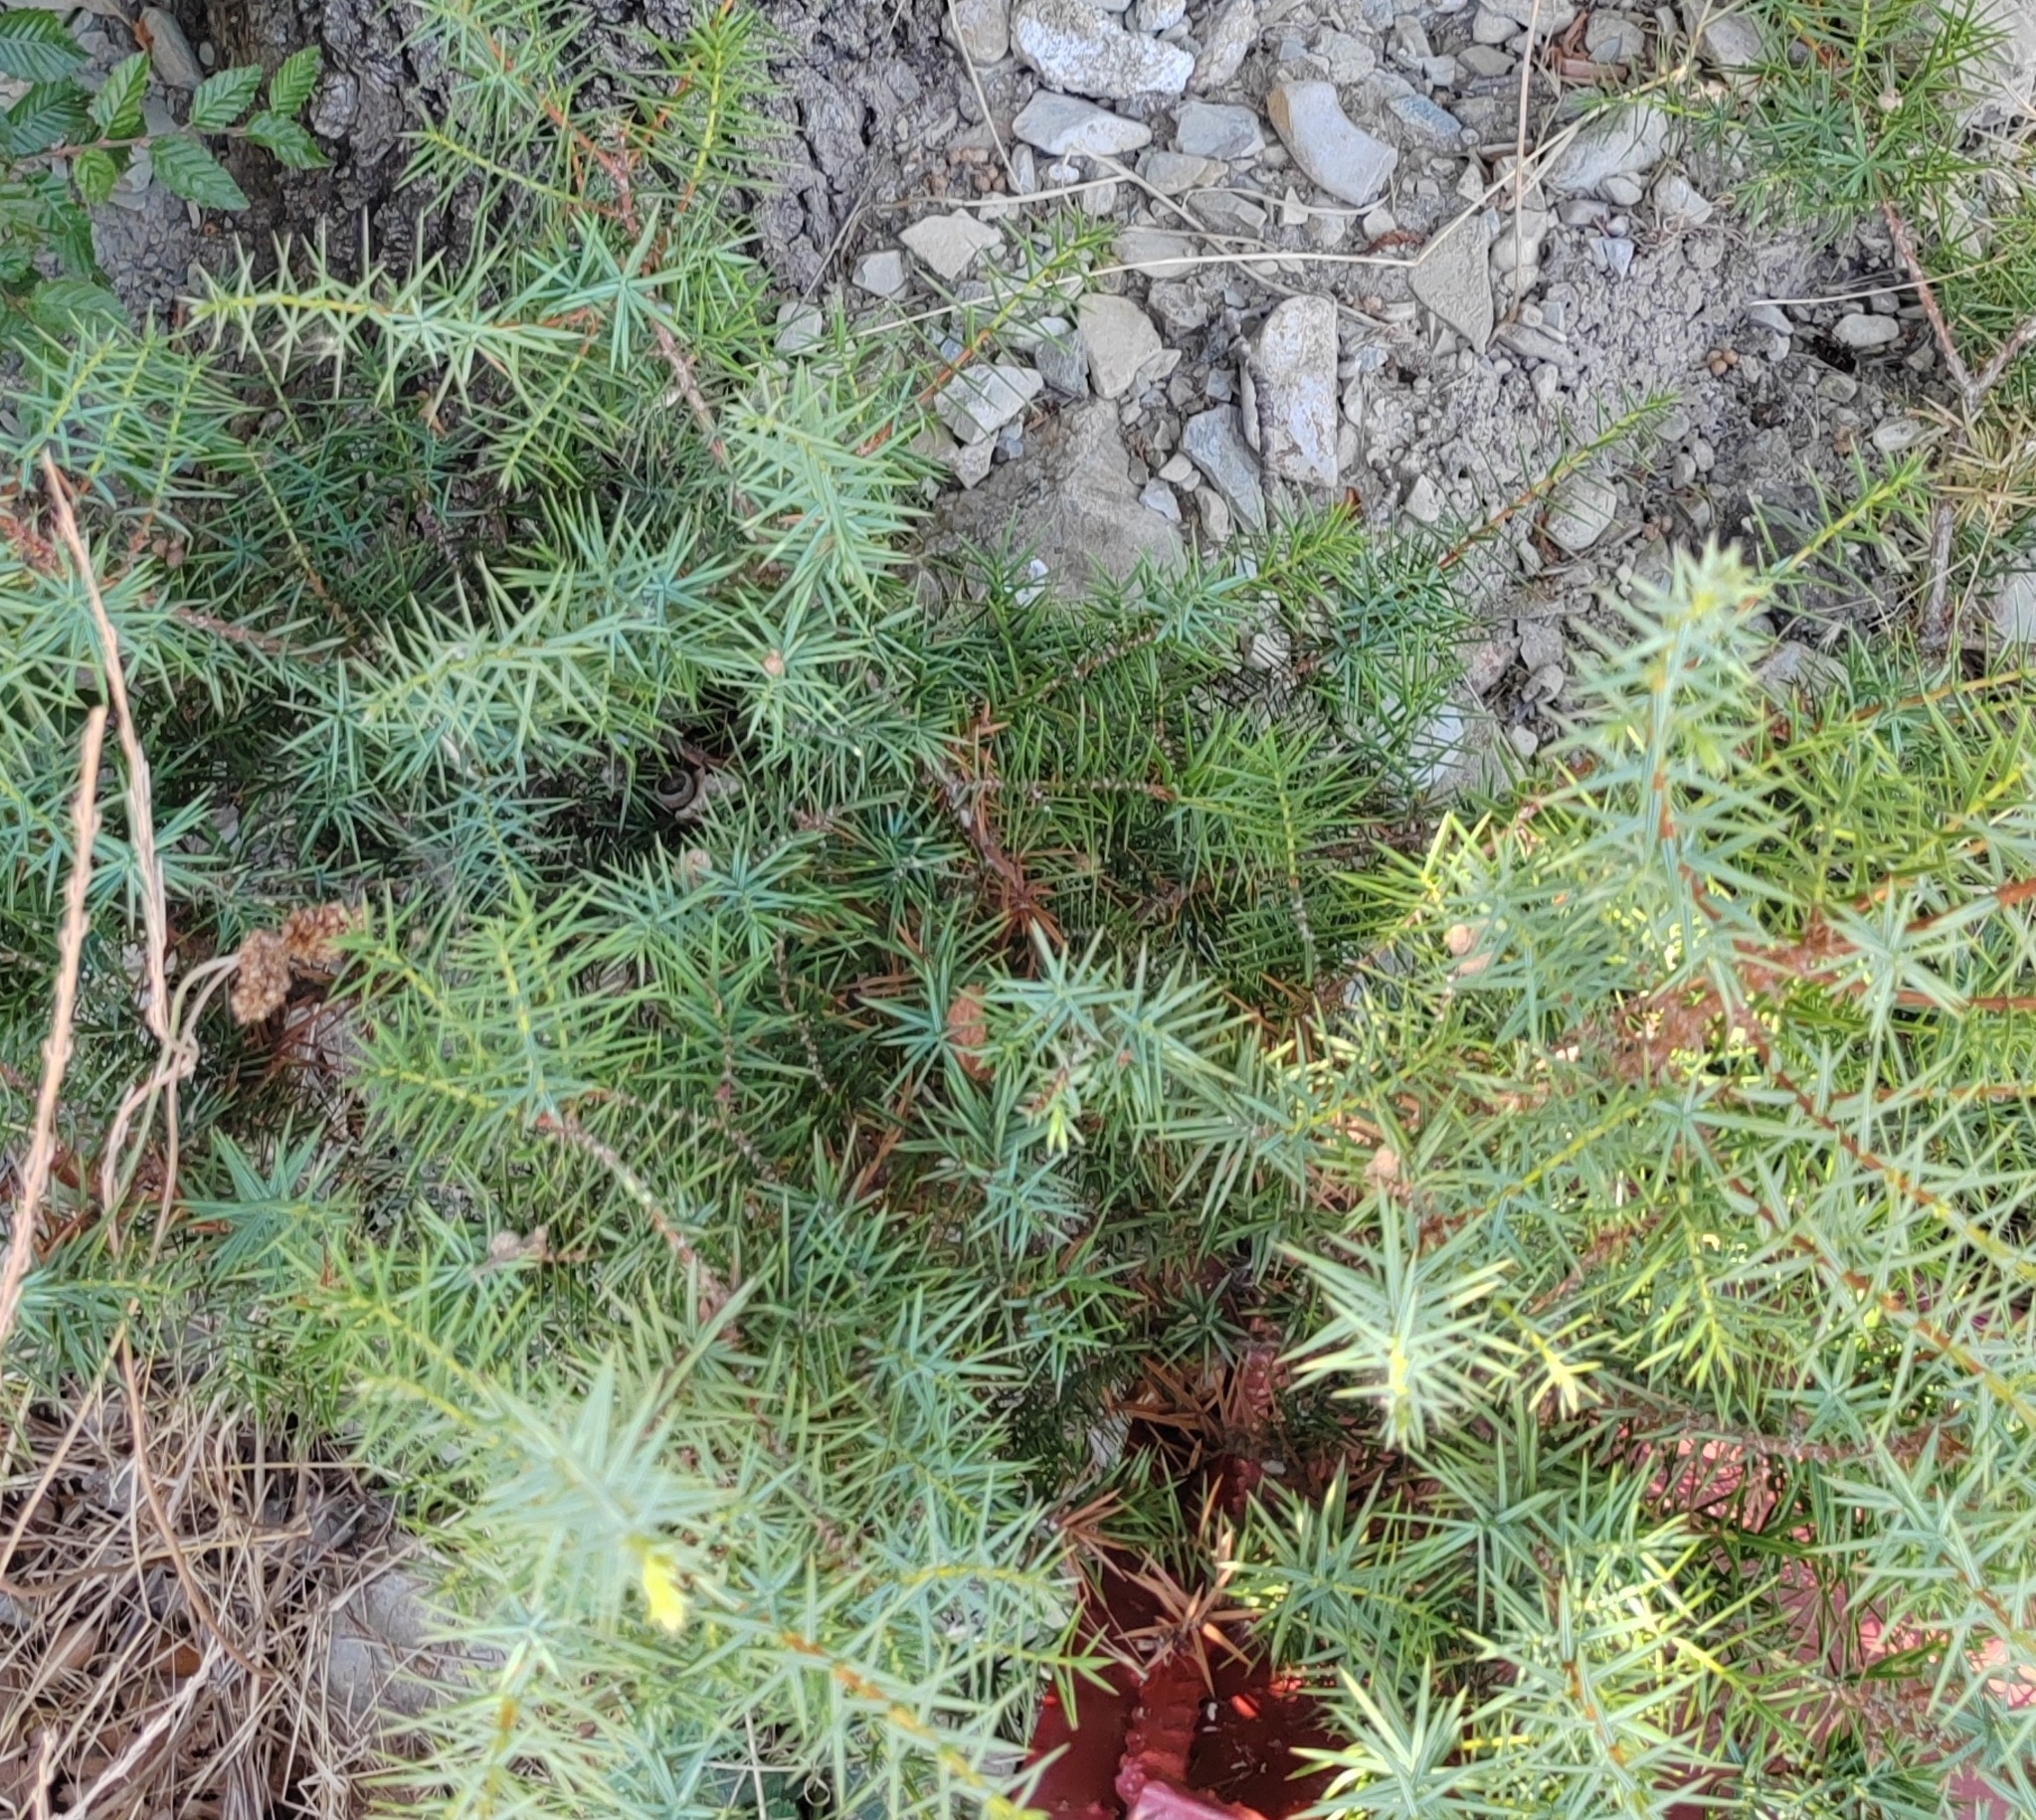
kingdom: Plantae
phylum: Tracheophyta
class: Pinopsida
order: Pinales
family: Cupressaceae
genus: Juniperus
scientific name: Juniperus oxycedrus
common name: Prickly juniper
